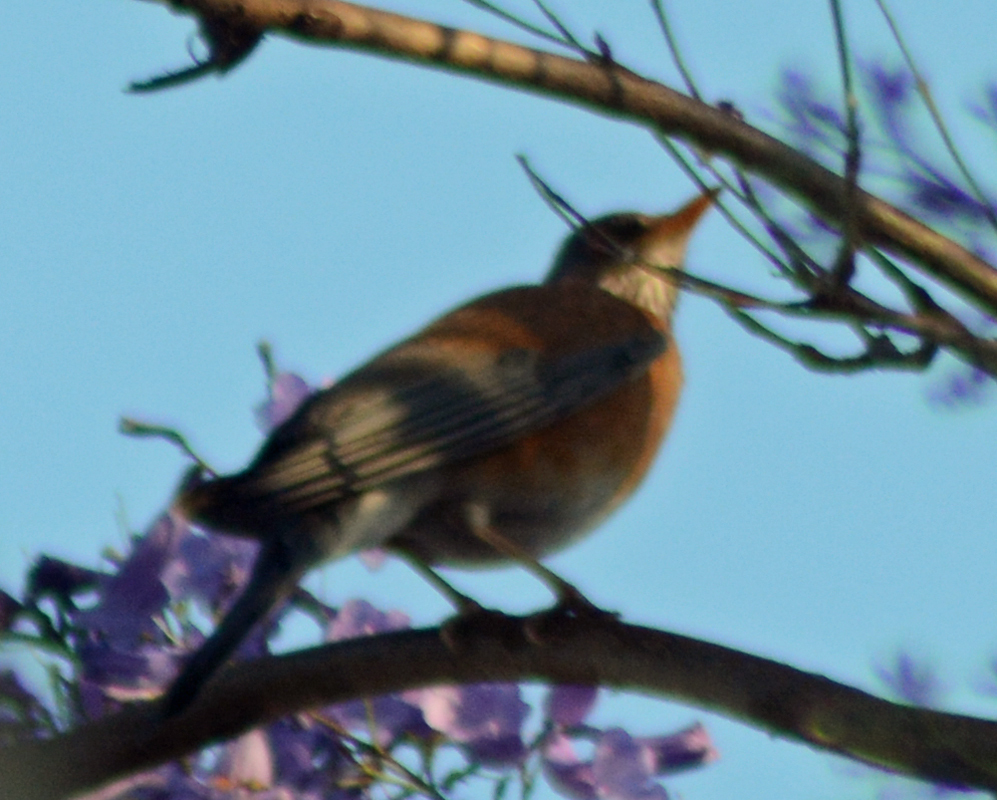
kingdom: Animalia
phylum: Chordata
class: Aves
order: Passeriformes
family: Turdidae
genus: Turdus
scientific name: Turdus rufopalliatus
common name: Rufous-backed robin
